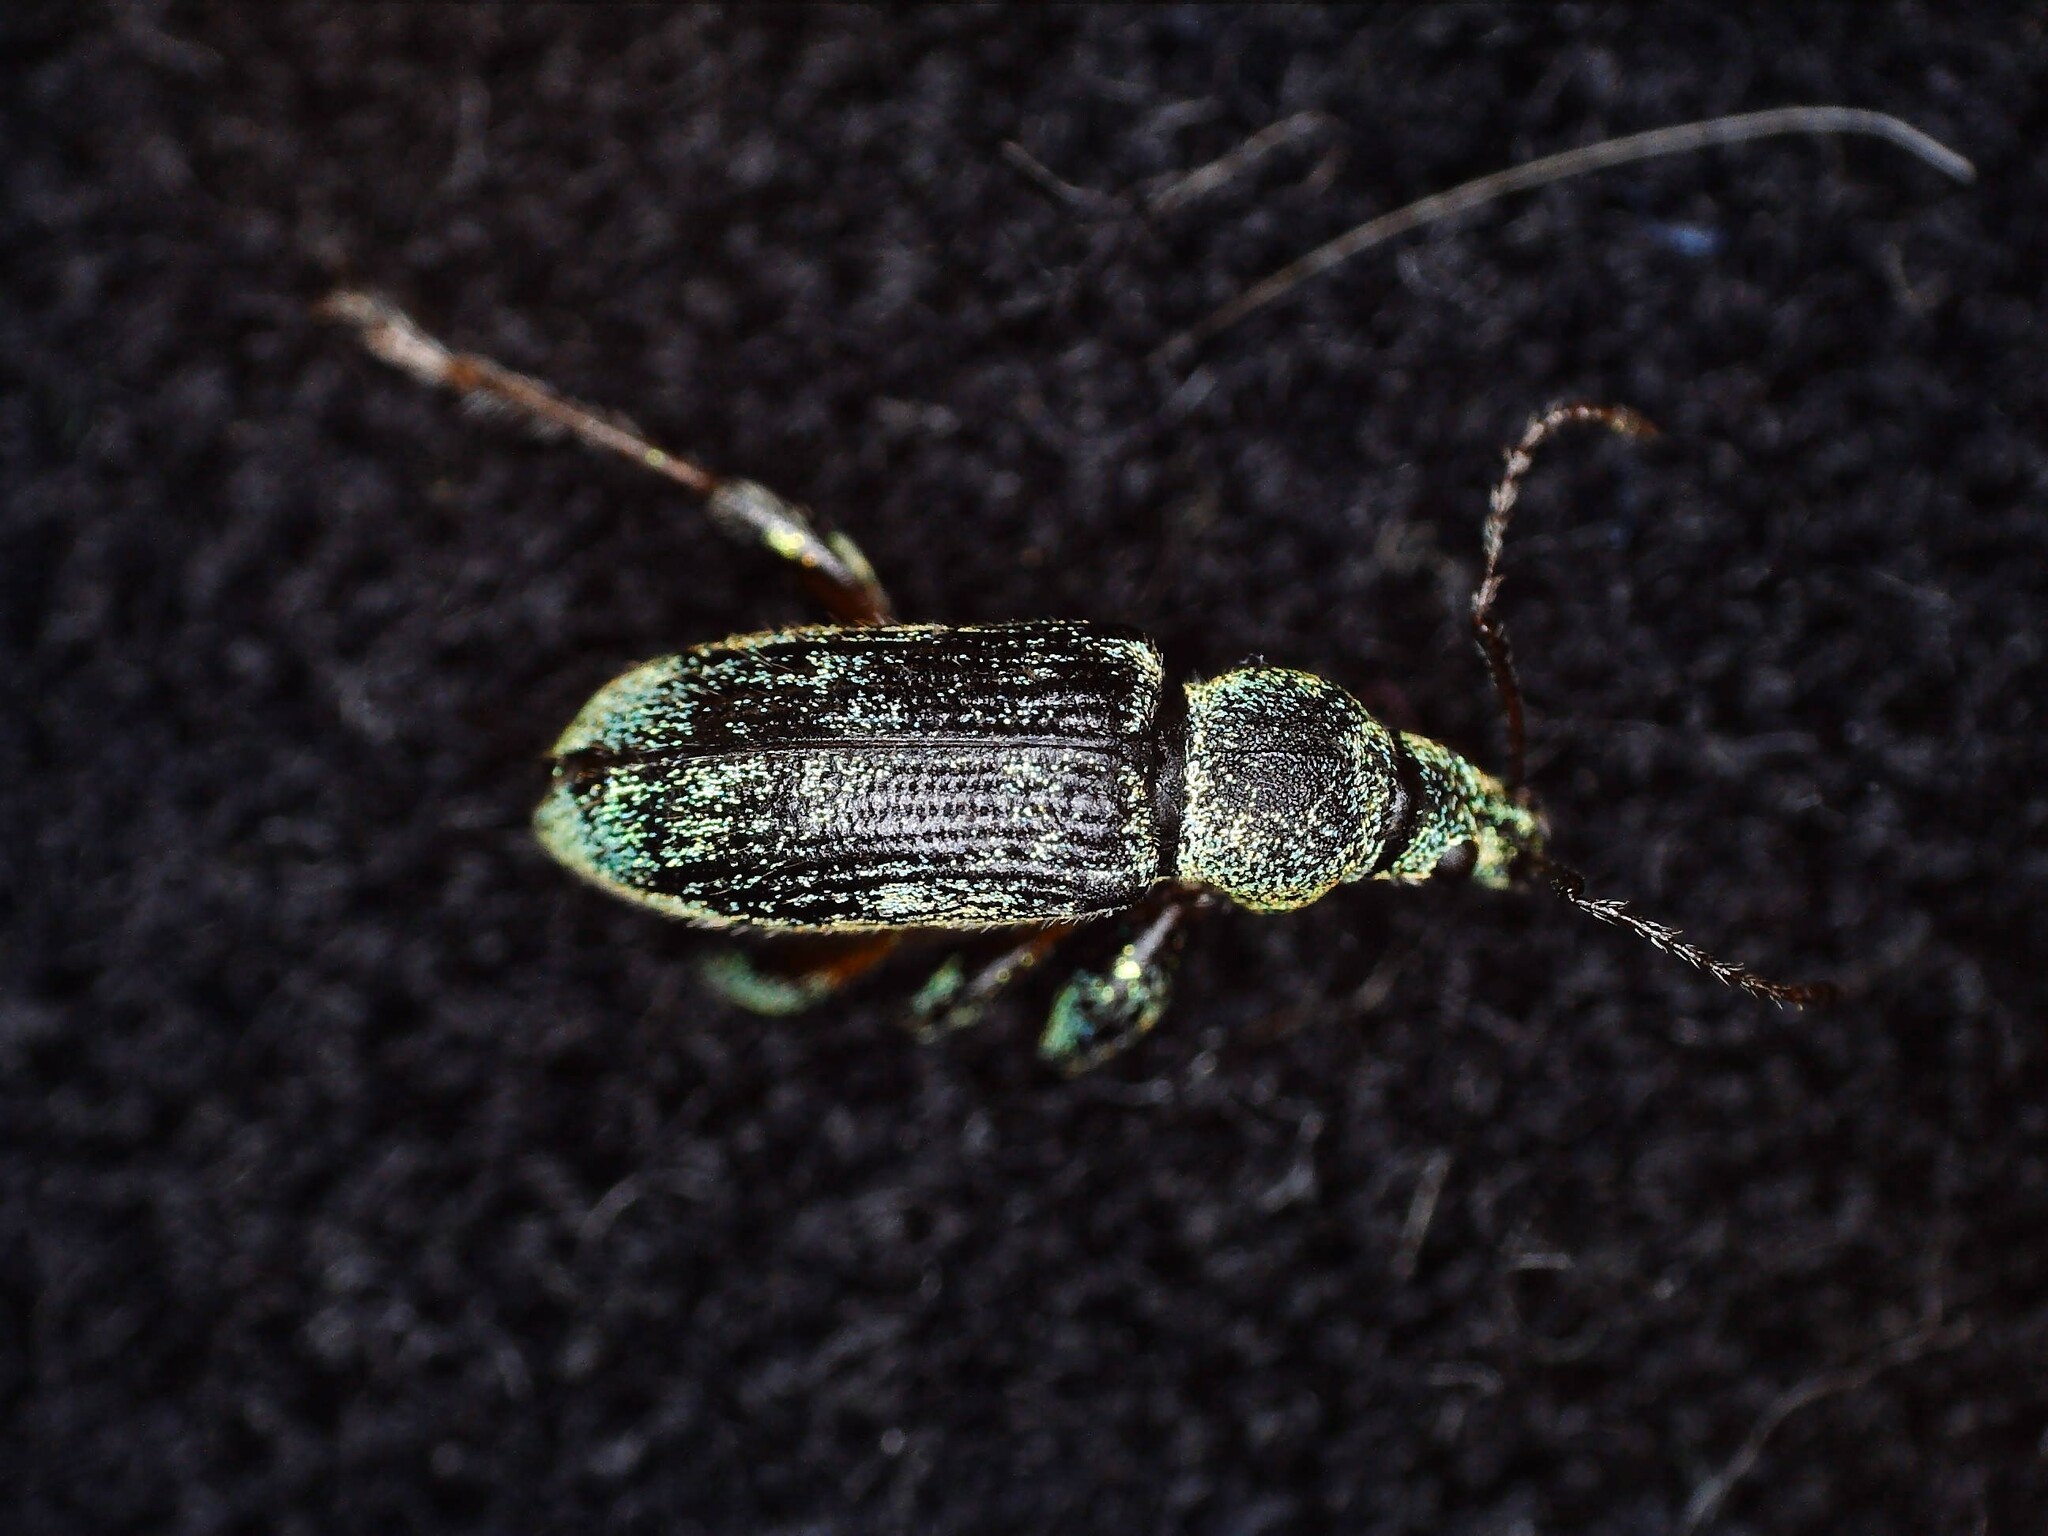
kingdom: Animalia
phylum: Arthropoda
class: Insecta
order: Coleoptera
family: Curculionidae
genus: Phyllobius
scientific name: Phyllobius arborator
